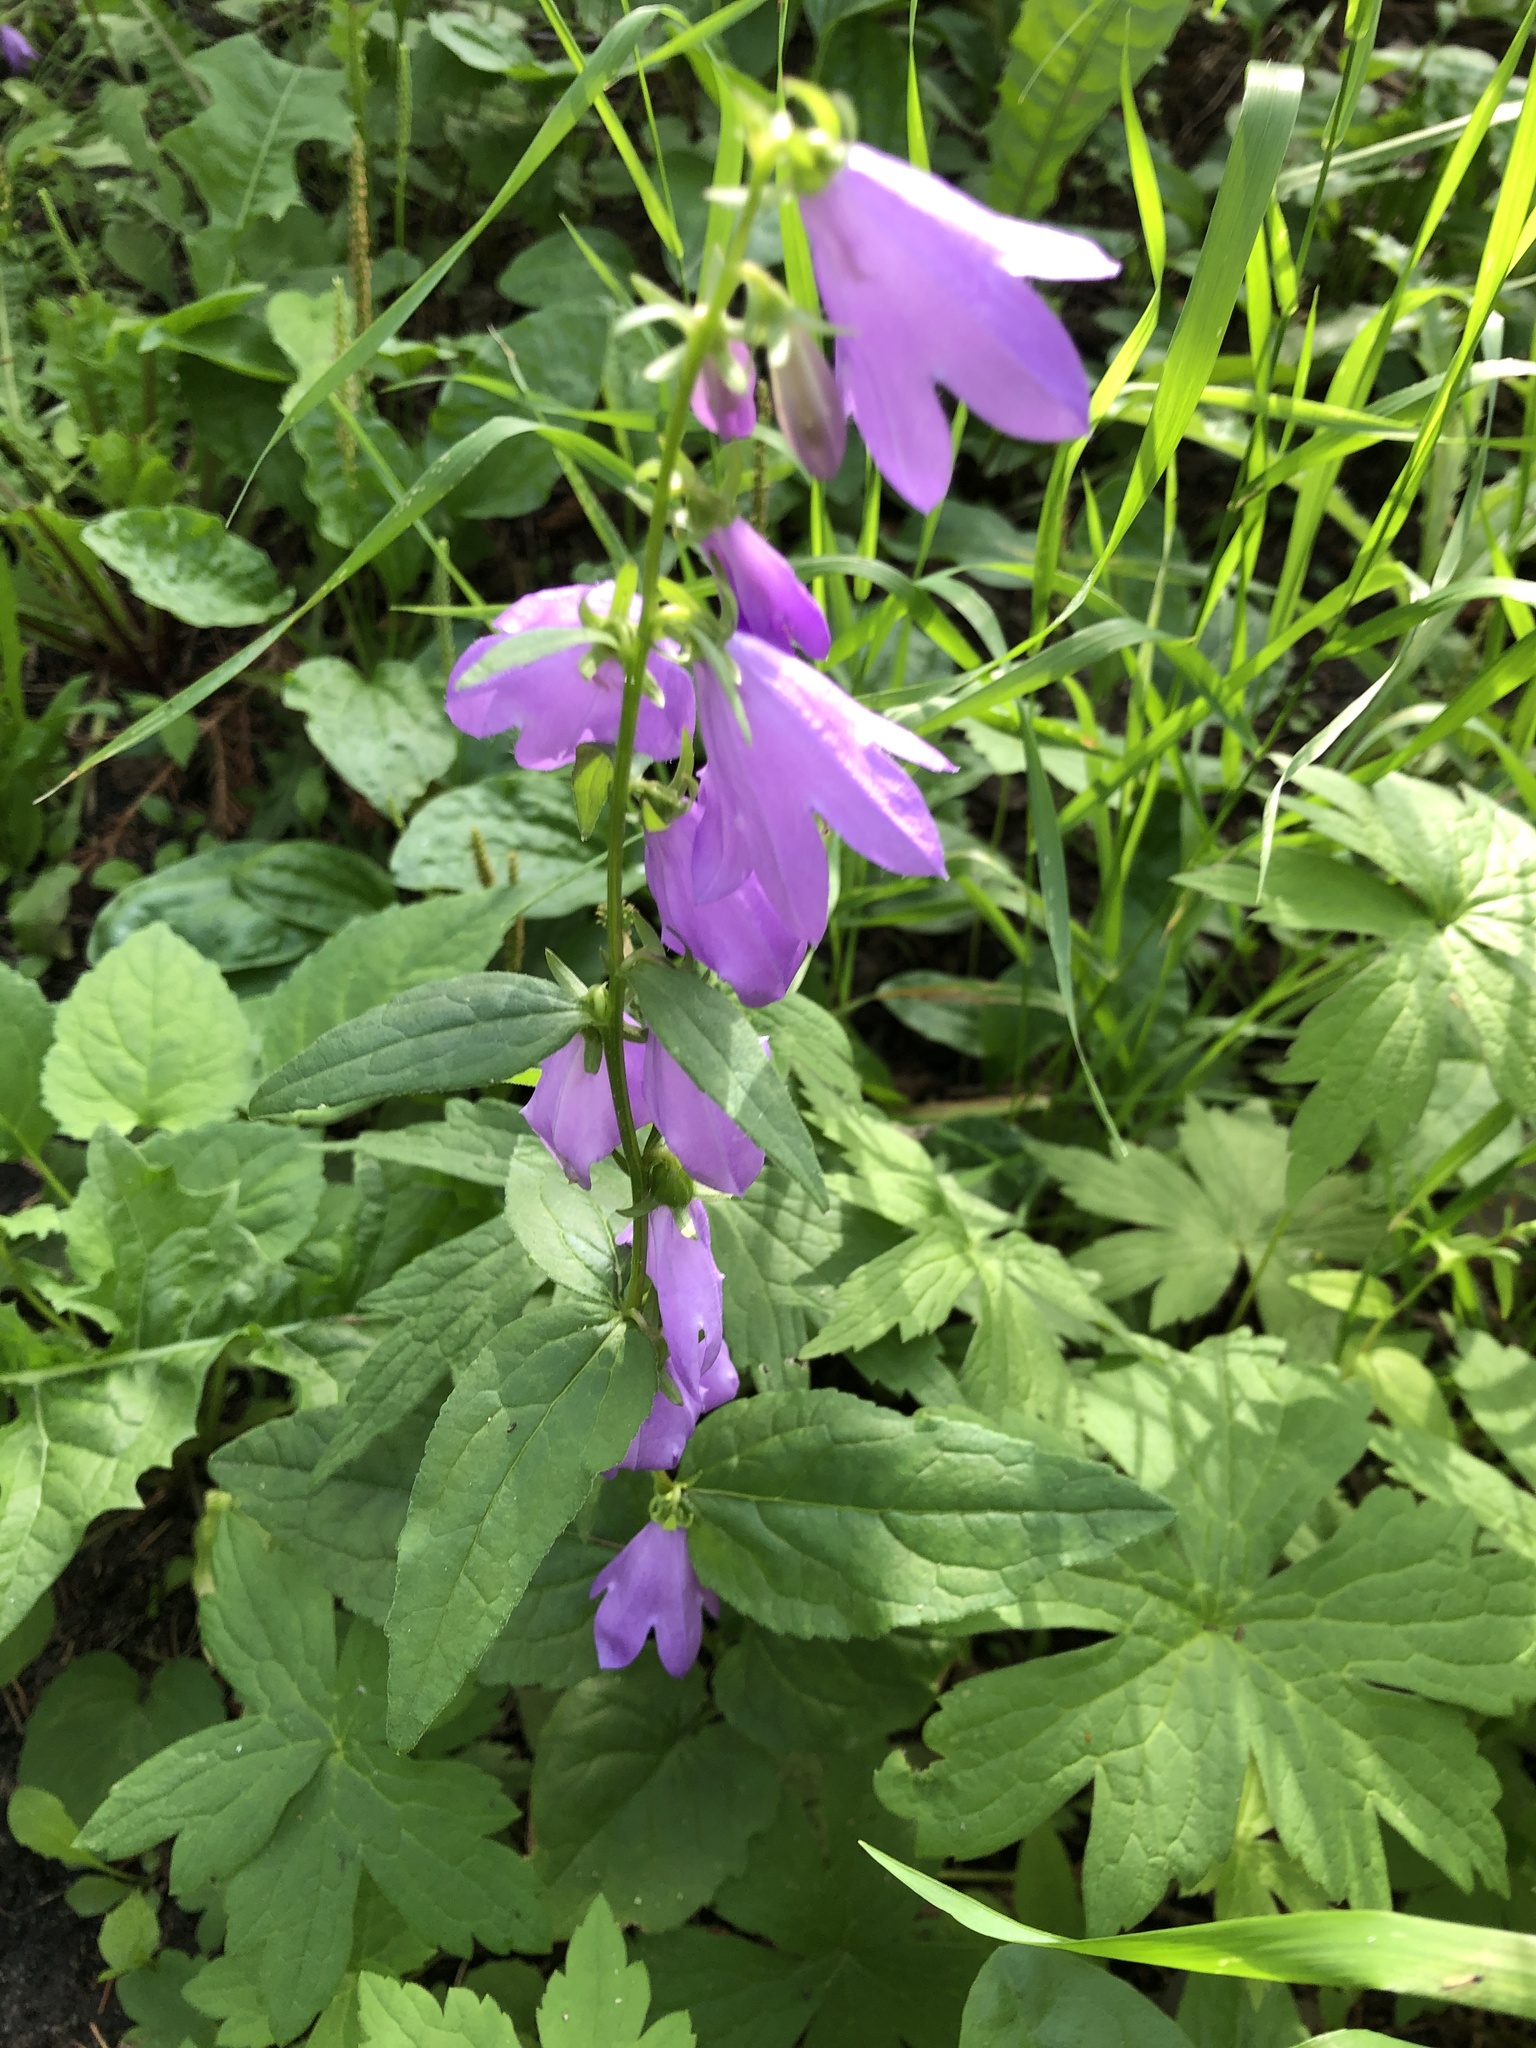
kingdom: Plantae
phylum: Tracheophyta
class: Magnoliopsida
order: Asterales
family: Campanulaceae
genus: Campanula
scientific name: Campanula rapunculoides
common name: Creeping bellflower
